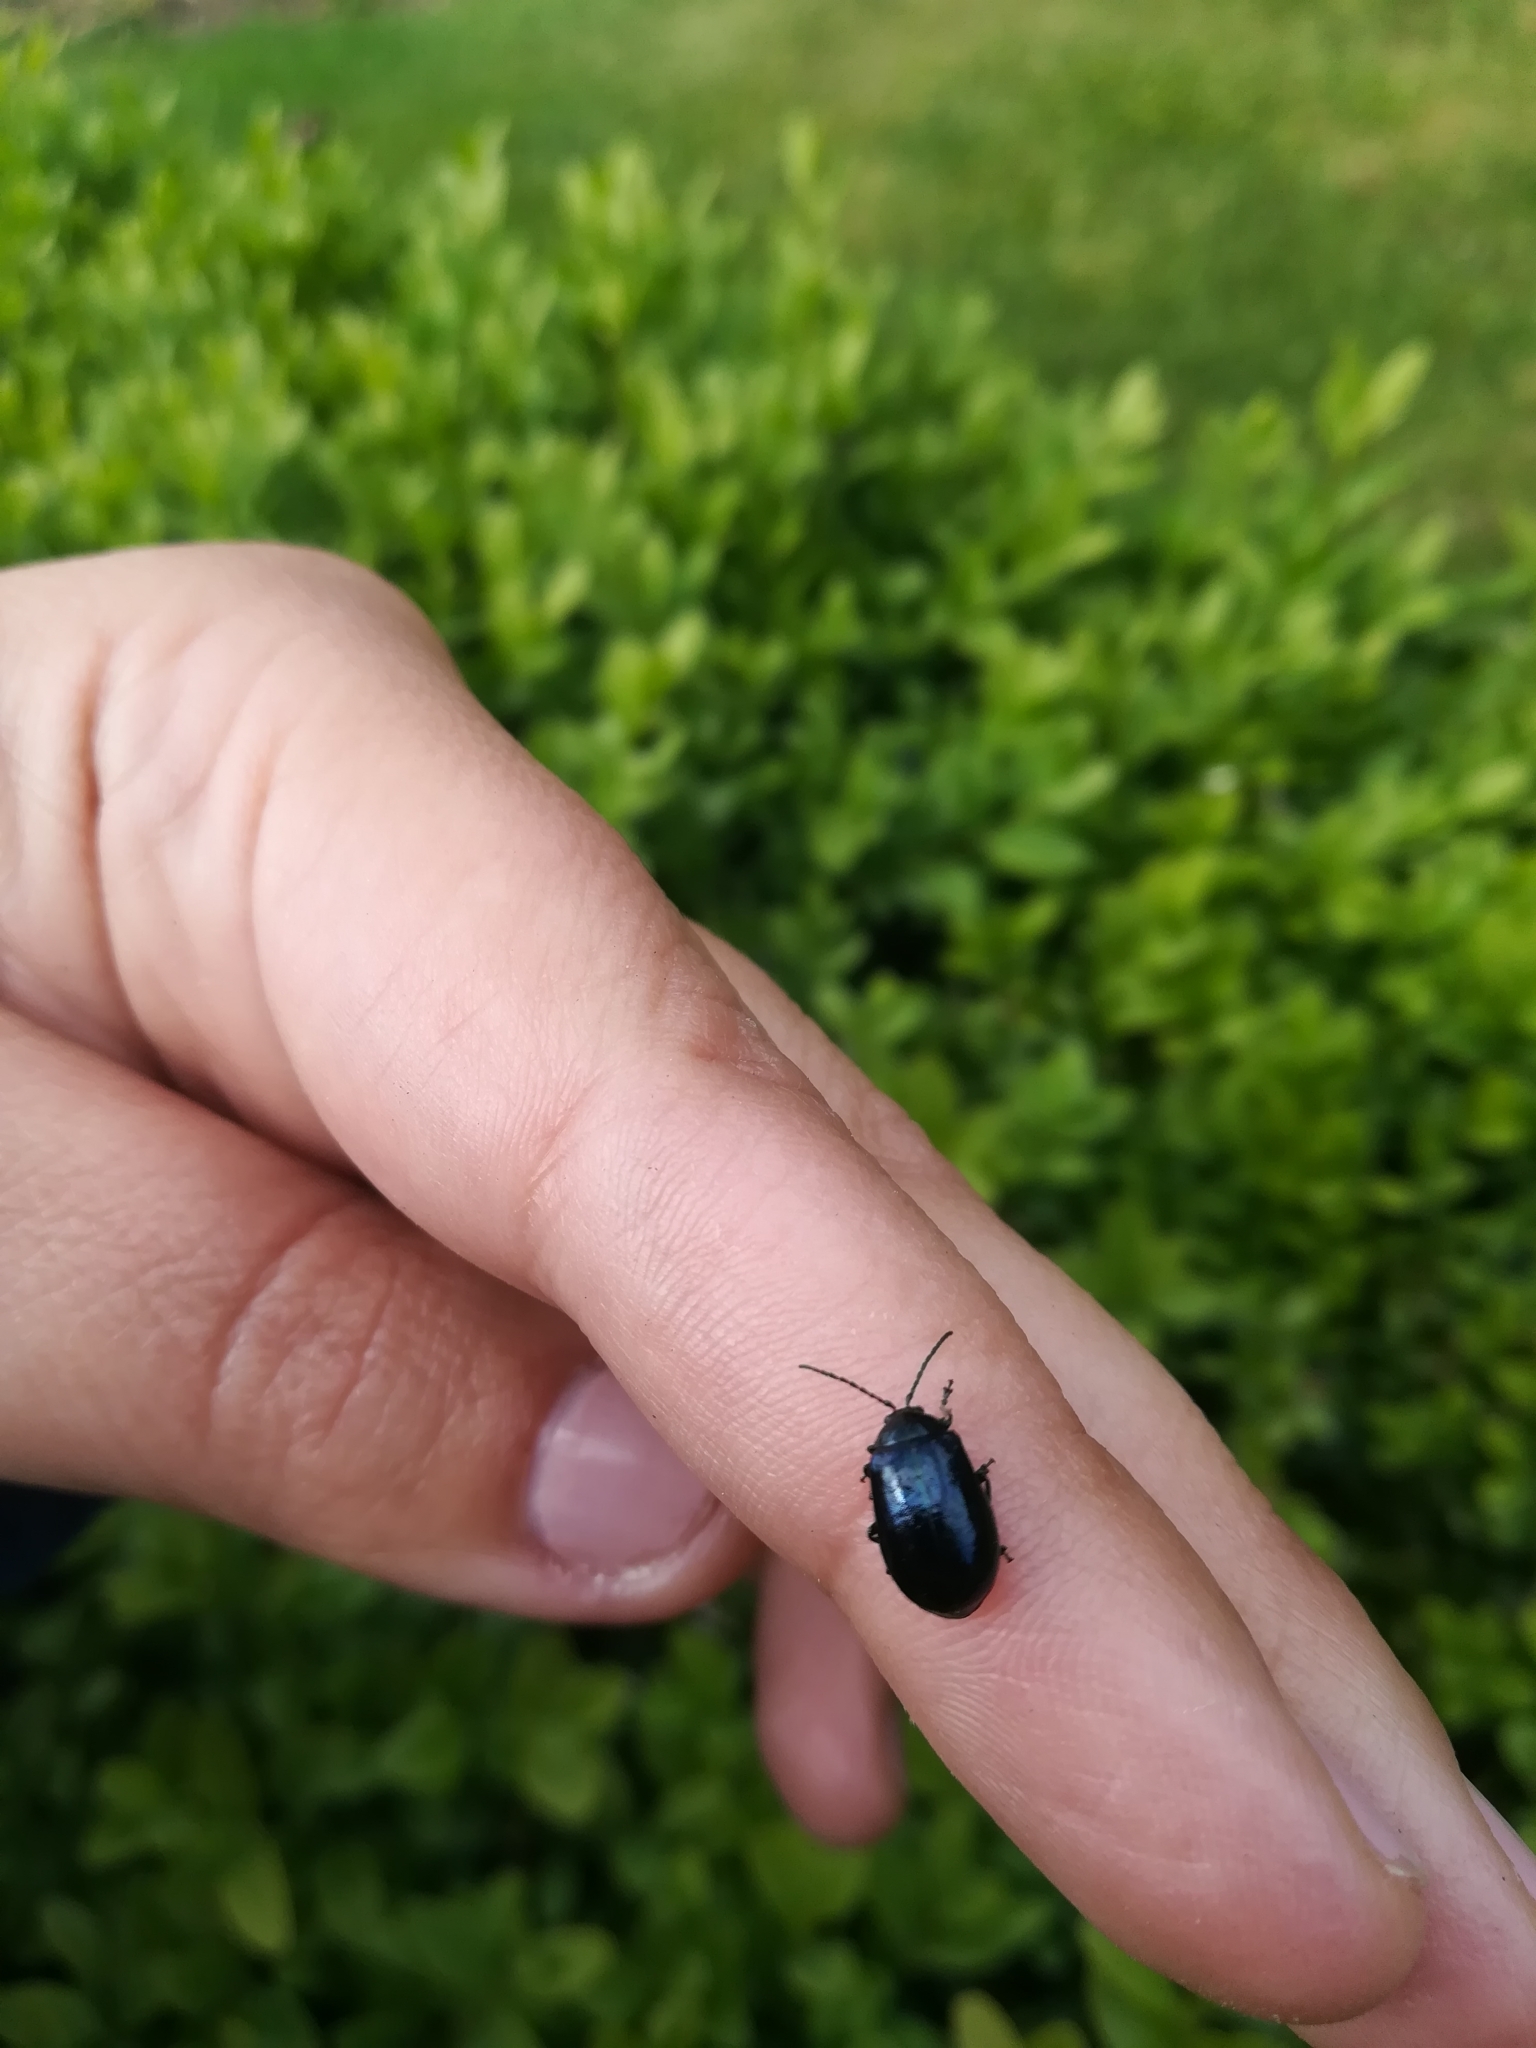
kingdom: Animalia
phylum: Arthropoda
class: Insecta
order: Coleoptera
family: Chrysomelidae
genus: Agelastica
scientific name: Agelastica alni
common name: Alder leaf beetle
